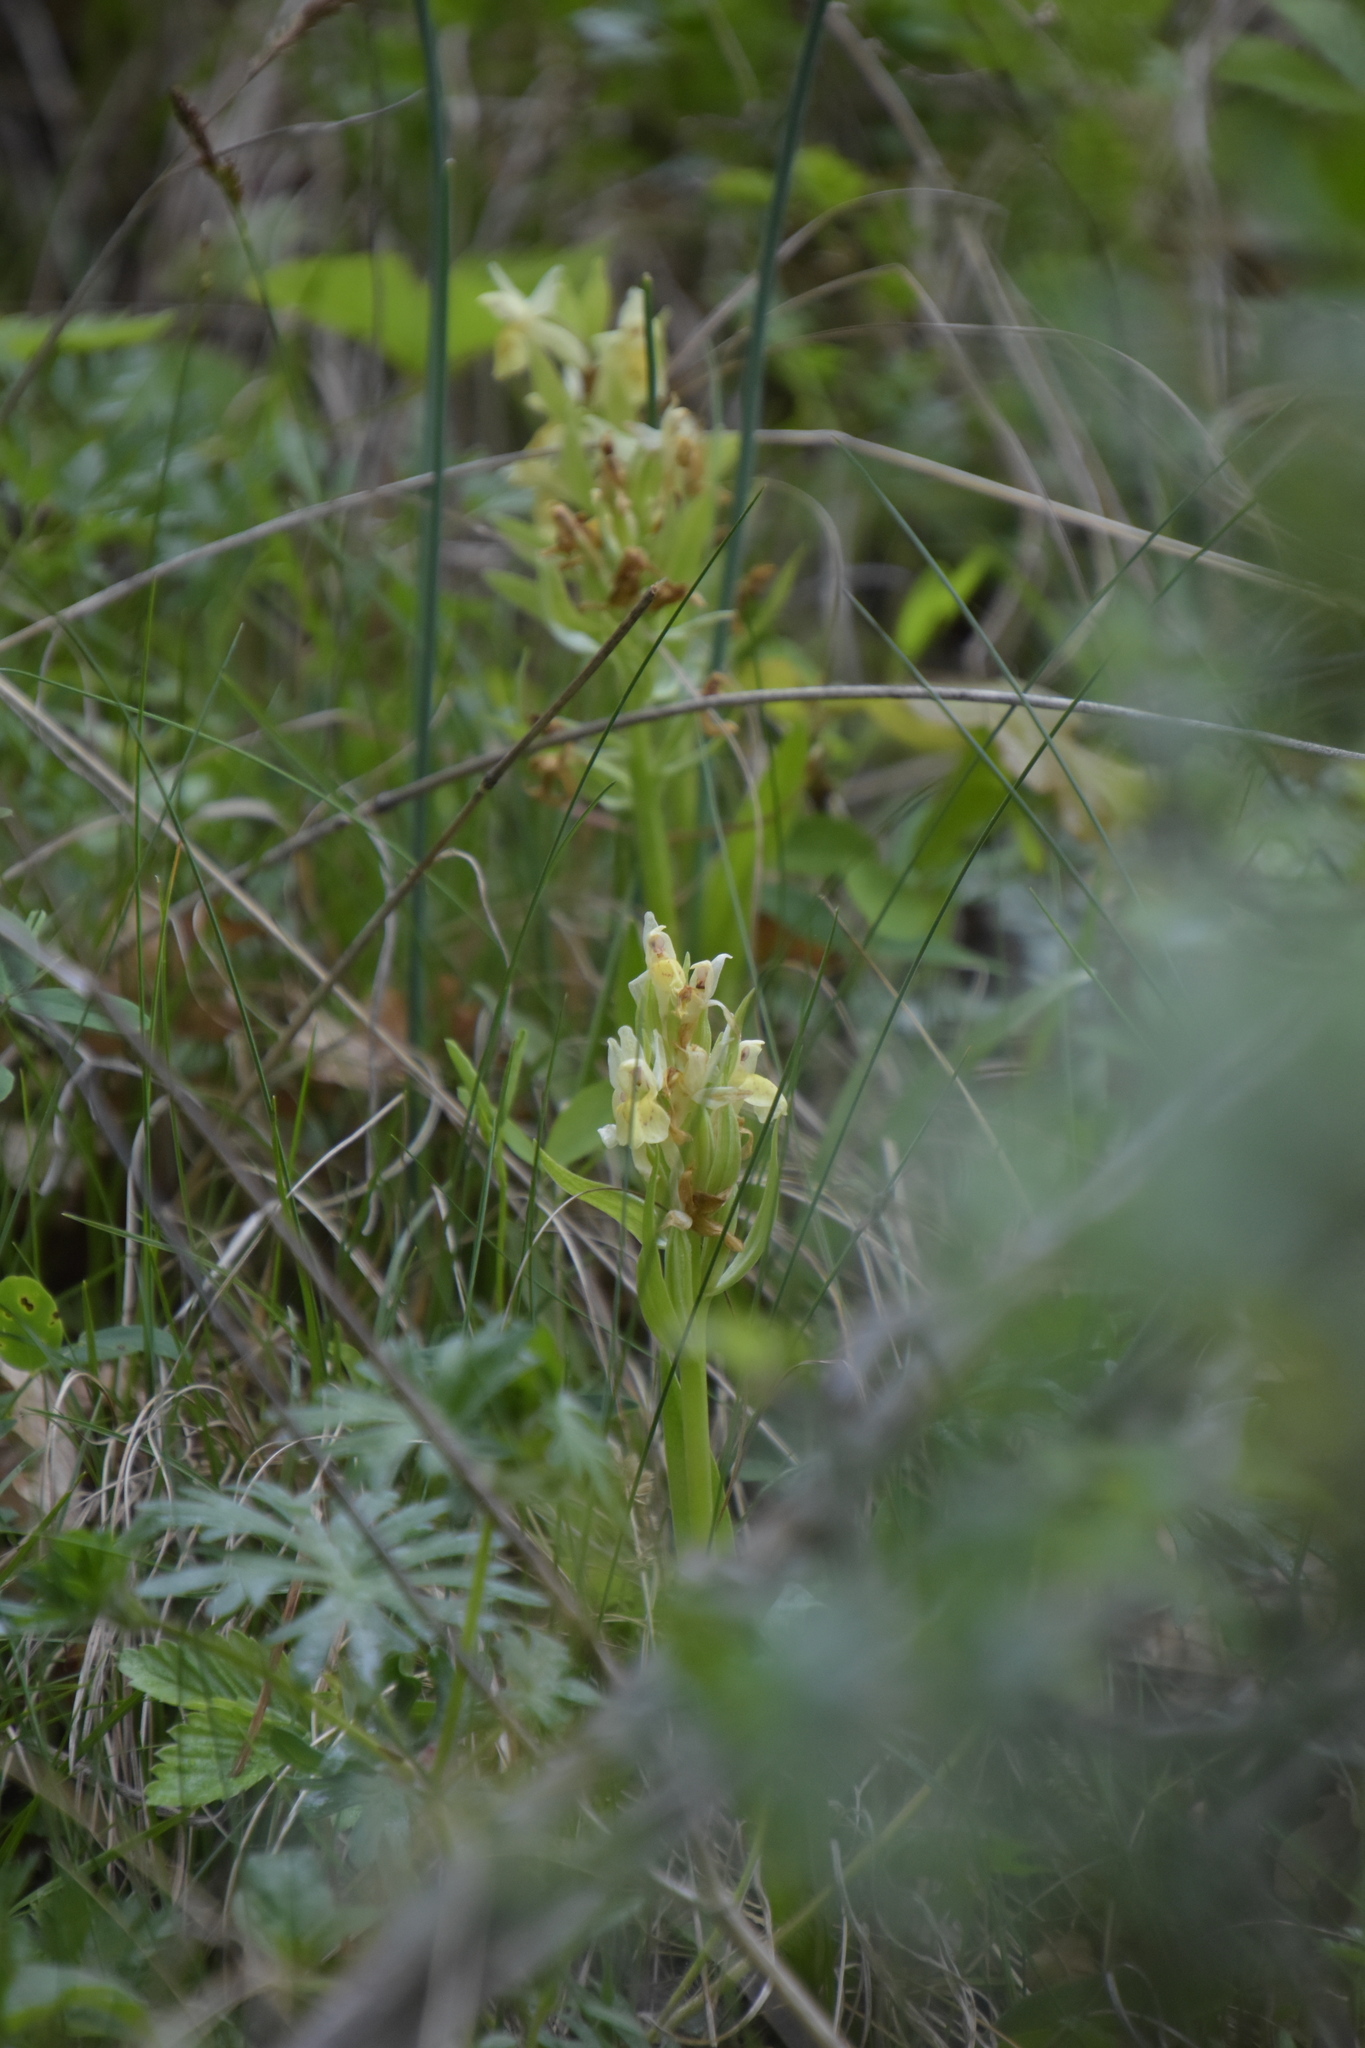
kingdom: Plantae
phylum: Tracheophyta
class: Liliopsida
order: Asparagales
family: Orchidaceae
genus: Dactylorhiza
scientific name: Dactylorhiza sambucina
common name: Elder-flowered orchid
